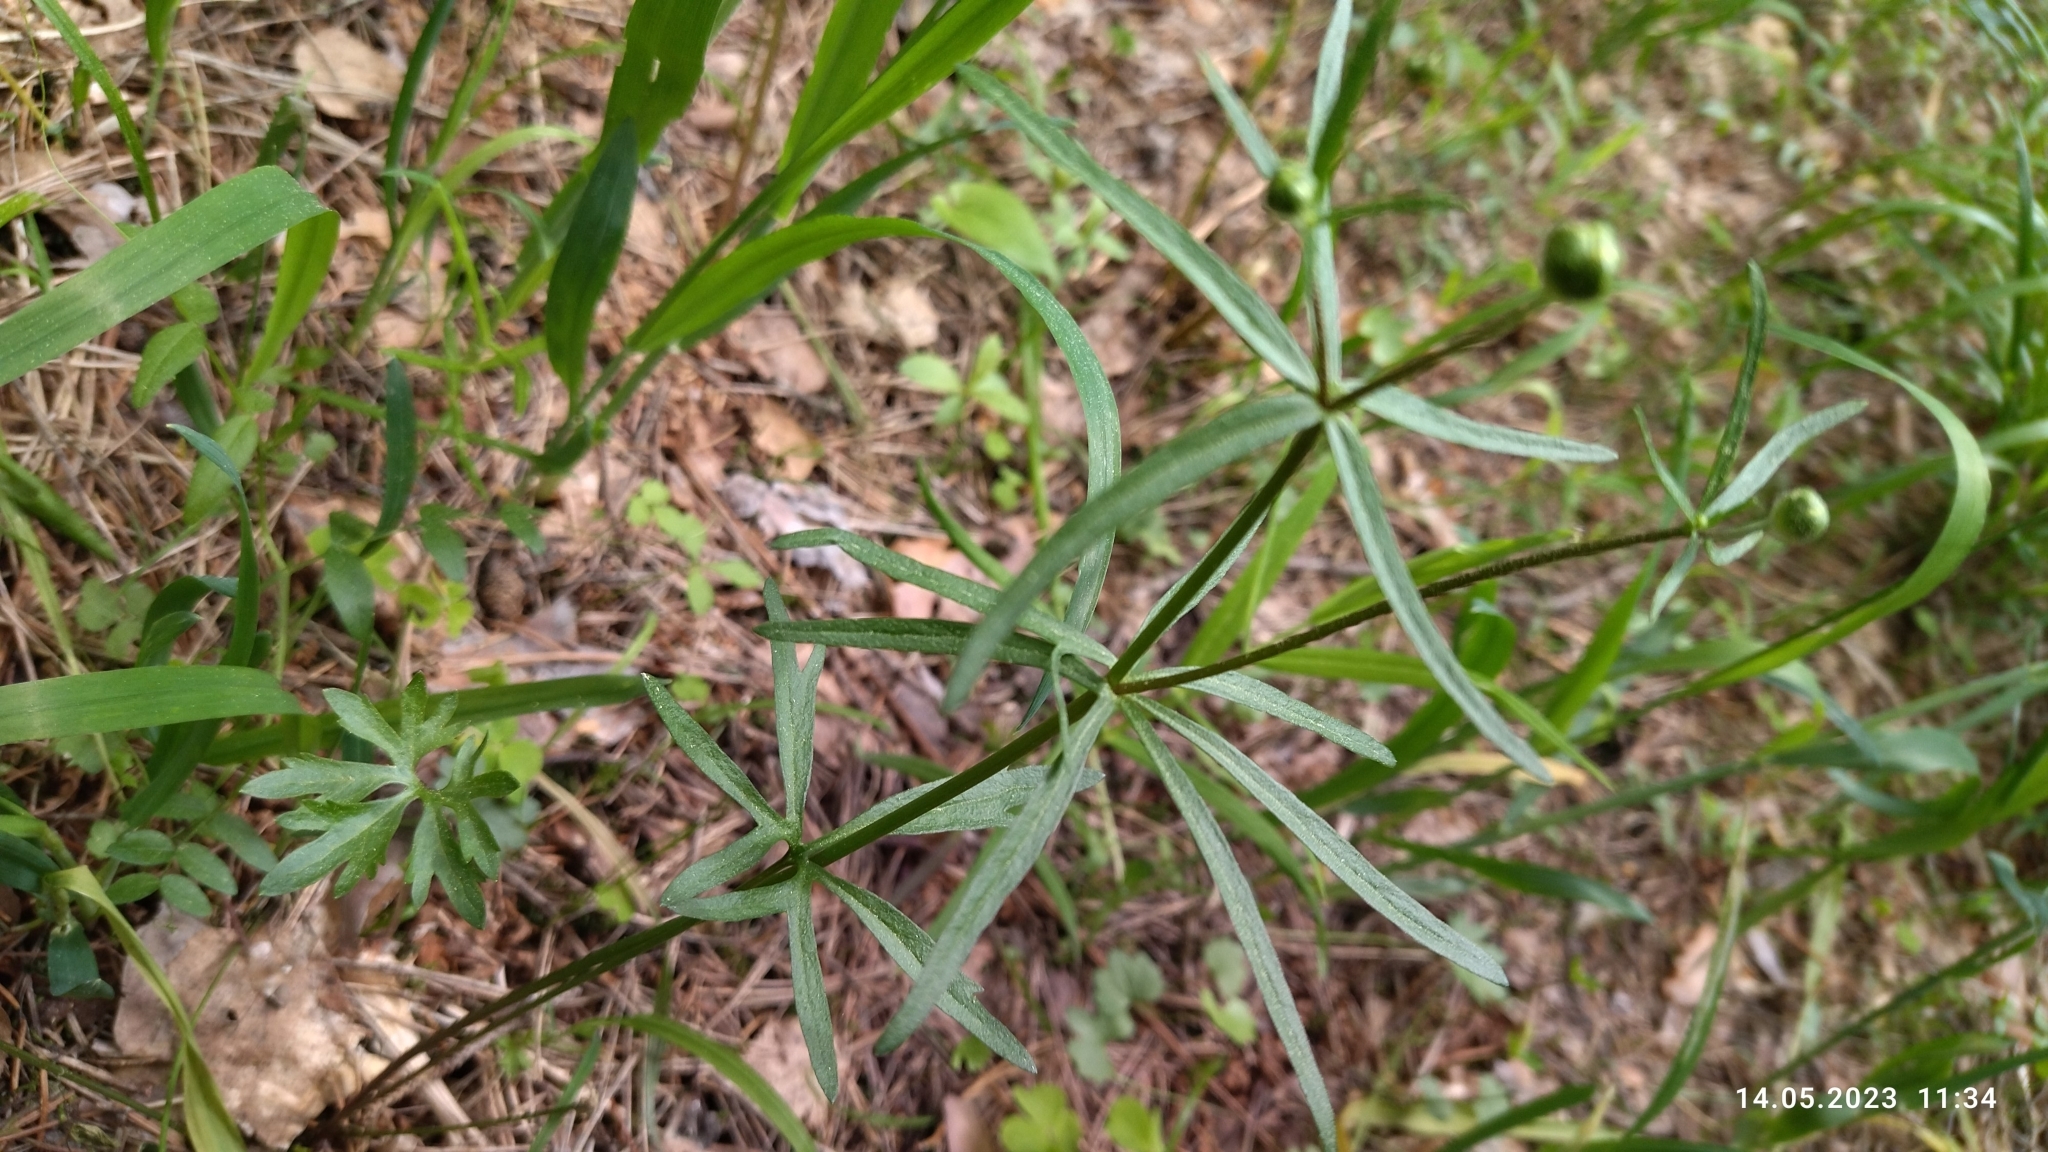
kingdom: Plantae
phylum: Tracheophyta
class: Magnoliopsida
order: Ranunculales
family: Ranunculaceae
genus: Ranunculus
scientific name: Ranunculus auricomus
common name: Goldilocks buttercup
